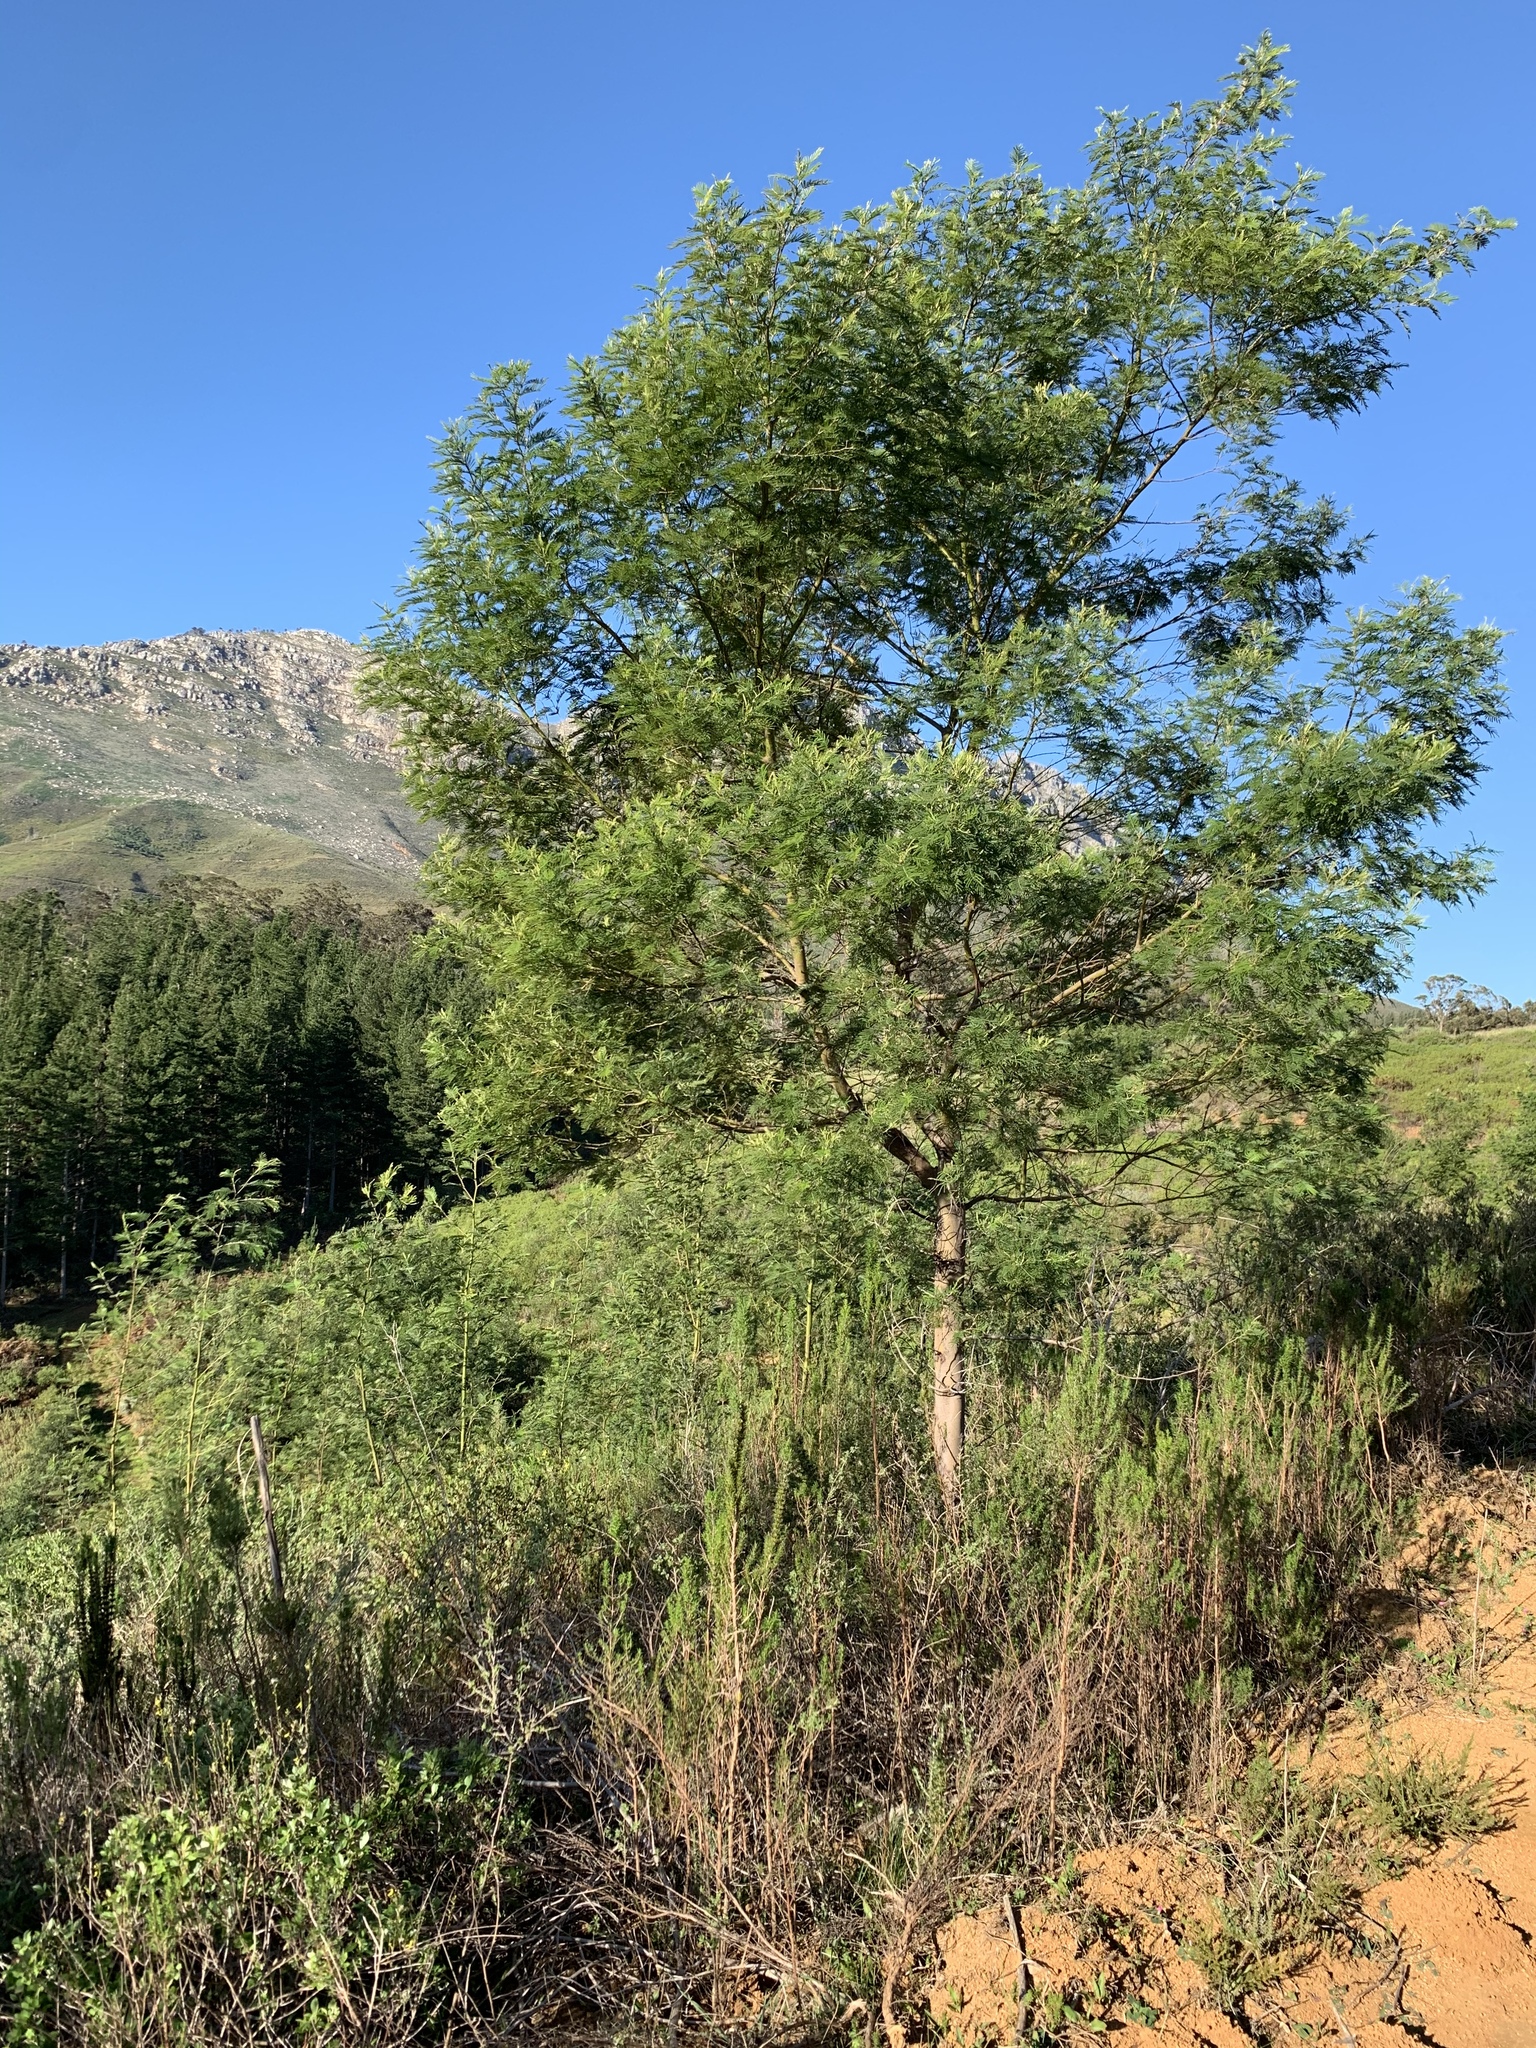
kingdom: Plantae
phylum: Tracheophyta
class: Magnoliopsida
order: Fabales
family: Fabaceae
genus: Acacia
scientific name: Acacia mearnsii
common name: Black wattle
